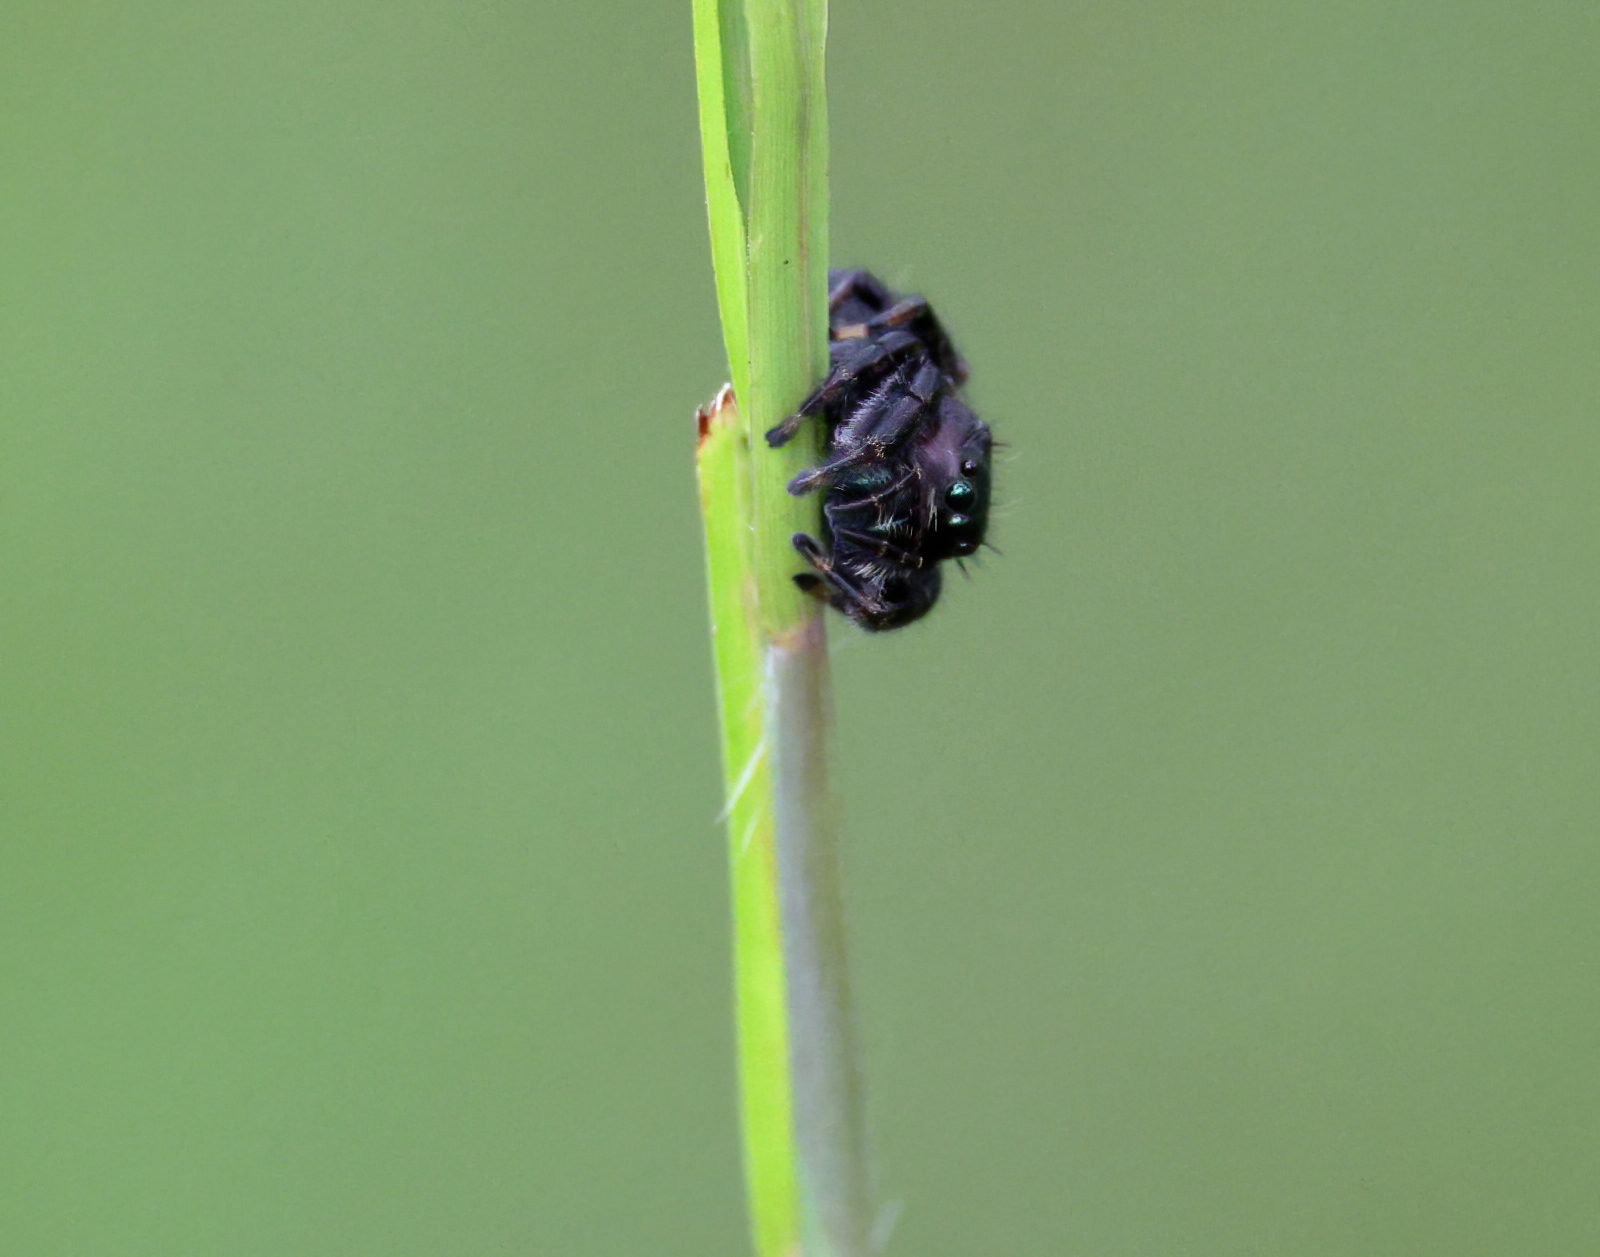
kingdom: Animalia
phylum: Arthropoda
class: Arachnida
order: Araneae
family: Salticidae
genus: Phidippus
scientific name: Phidippus clarus
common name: Brilliant jumping spider
